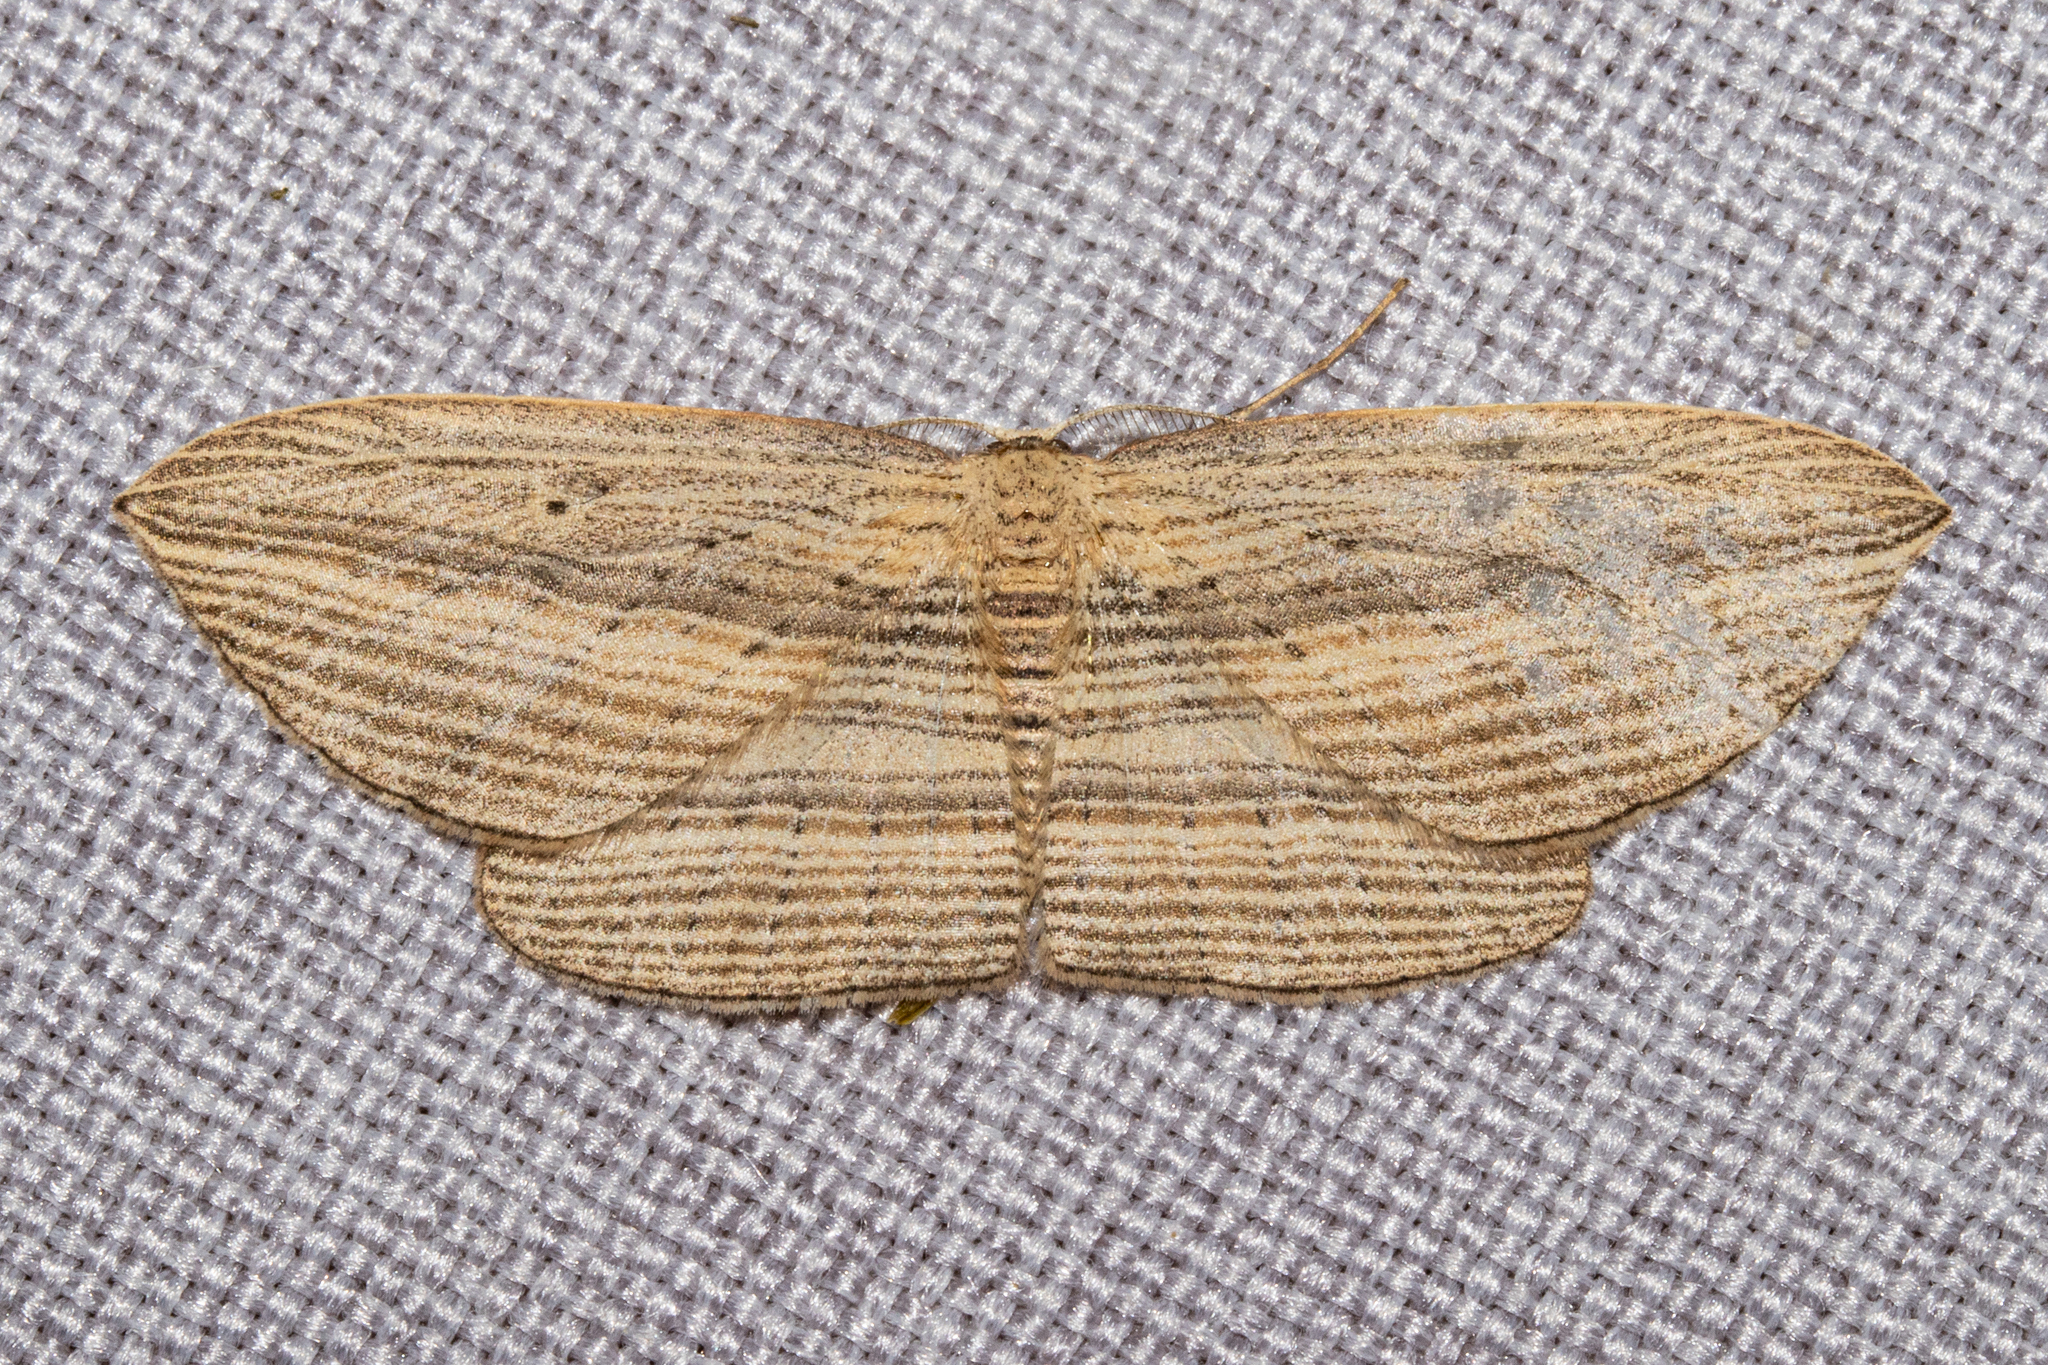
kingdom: Animalia
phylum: Arthropoda
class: Insecta
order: Lepidoptera
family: Geometridae
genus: Epiphryne
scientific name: Epiphryne verriculata
